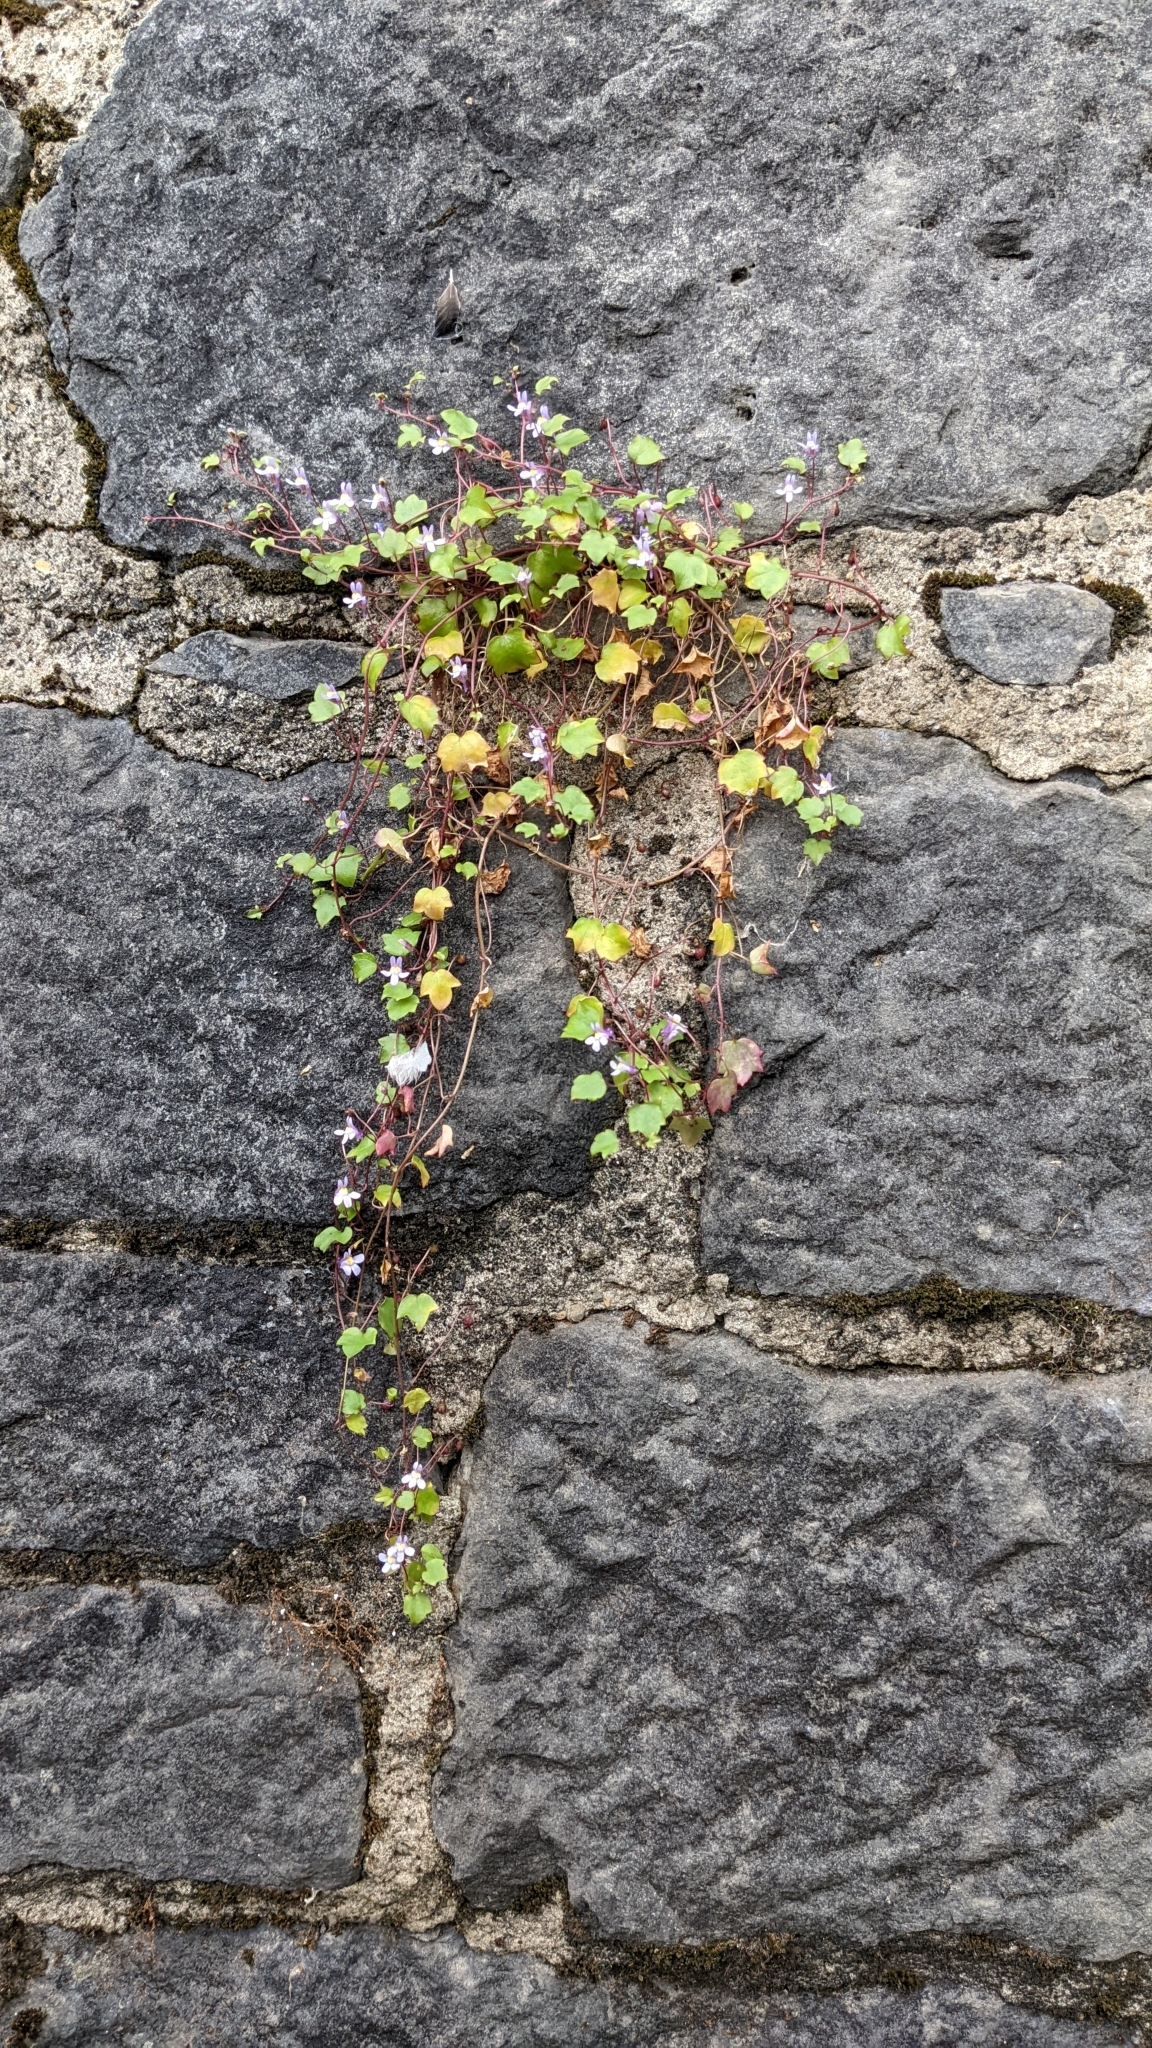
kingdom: Plantae
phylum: Tracheophyta
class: Magnoliopsida
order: Lamiales
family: Plantaginaceae
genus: Cymbalaria
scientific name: Cymbalaria muralis
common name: Ivy-leaved toadflax
